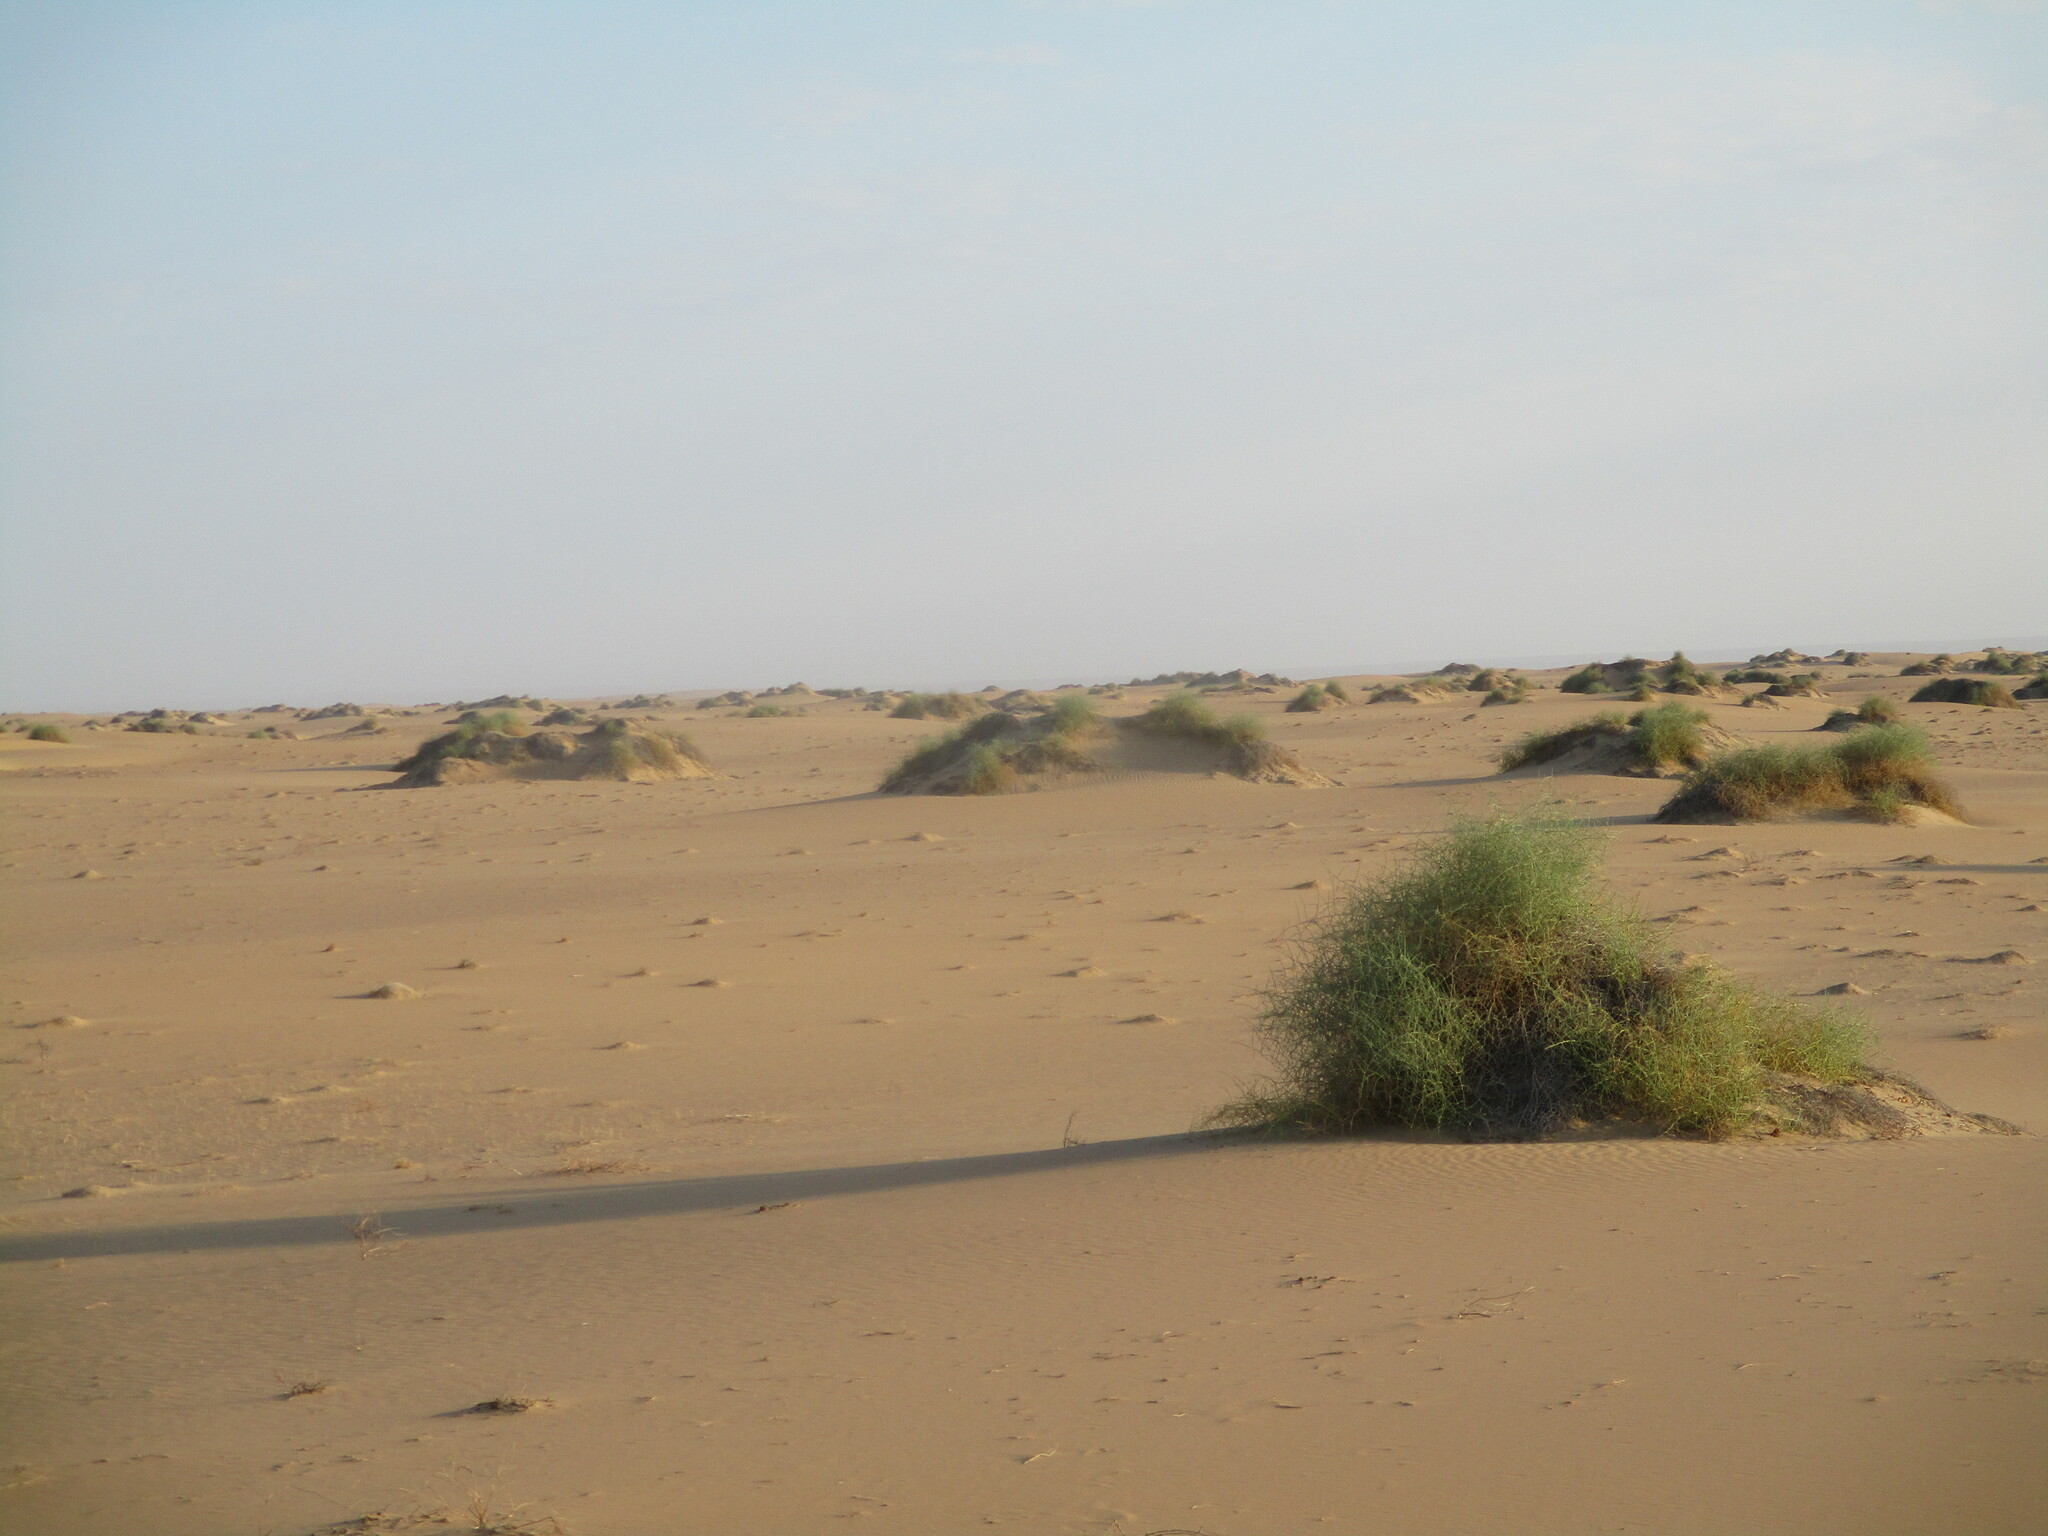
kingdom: Plantae
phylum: Tracheophyta
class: Magnoliopsida
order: Cucurbitales
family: Cucurbitaceae
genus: Acanthosicyos
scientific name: Acanthosicyos horridus
